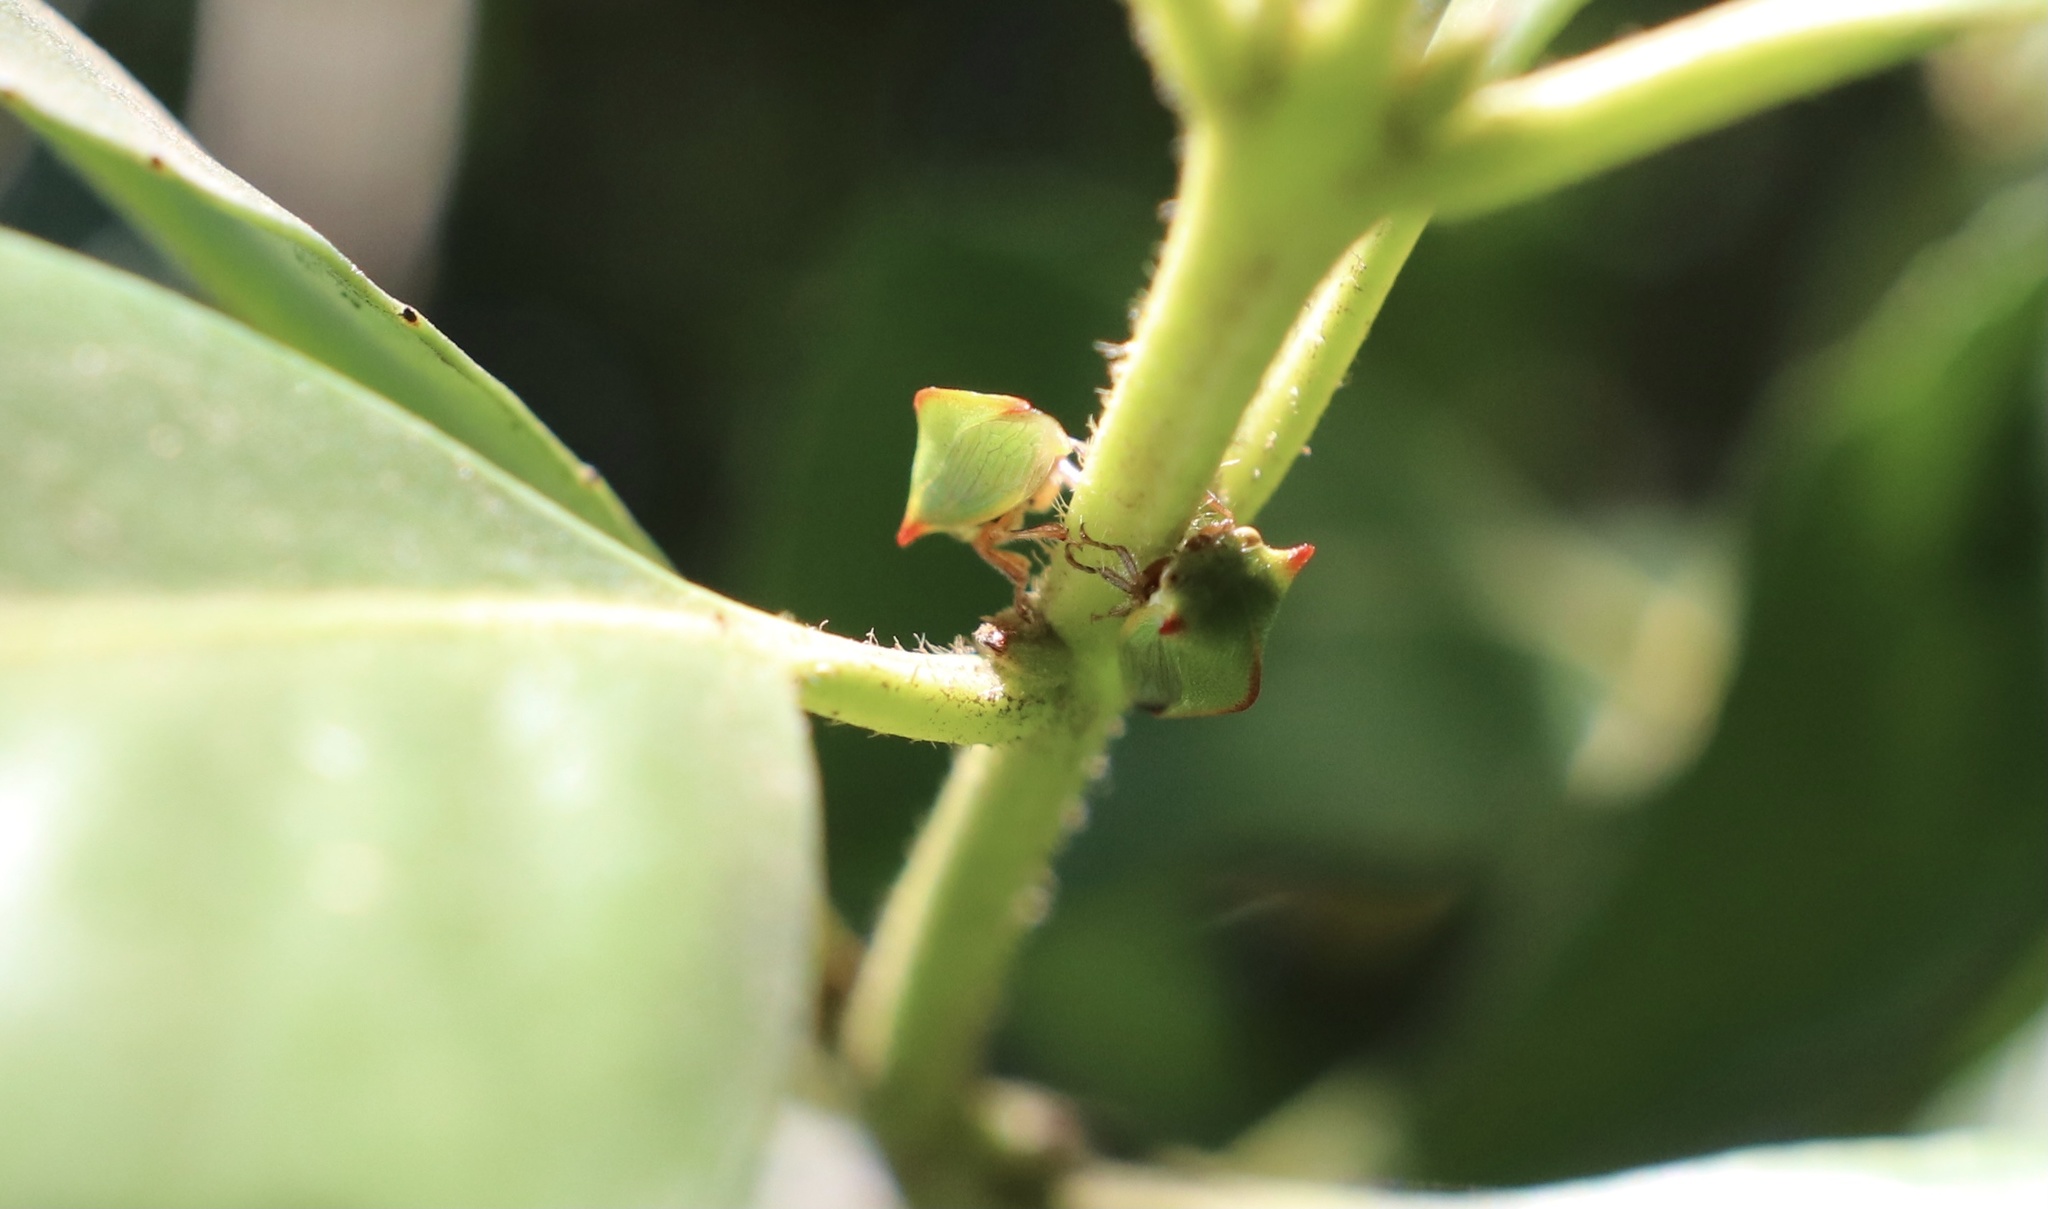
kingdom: Animalia
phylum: Arthropoda
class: Insecta
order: Hemiptera
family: Membracidae
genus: Alchisme
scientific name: Alchisme rubrocostata
